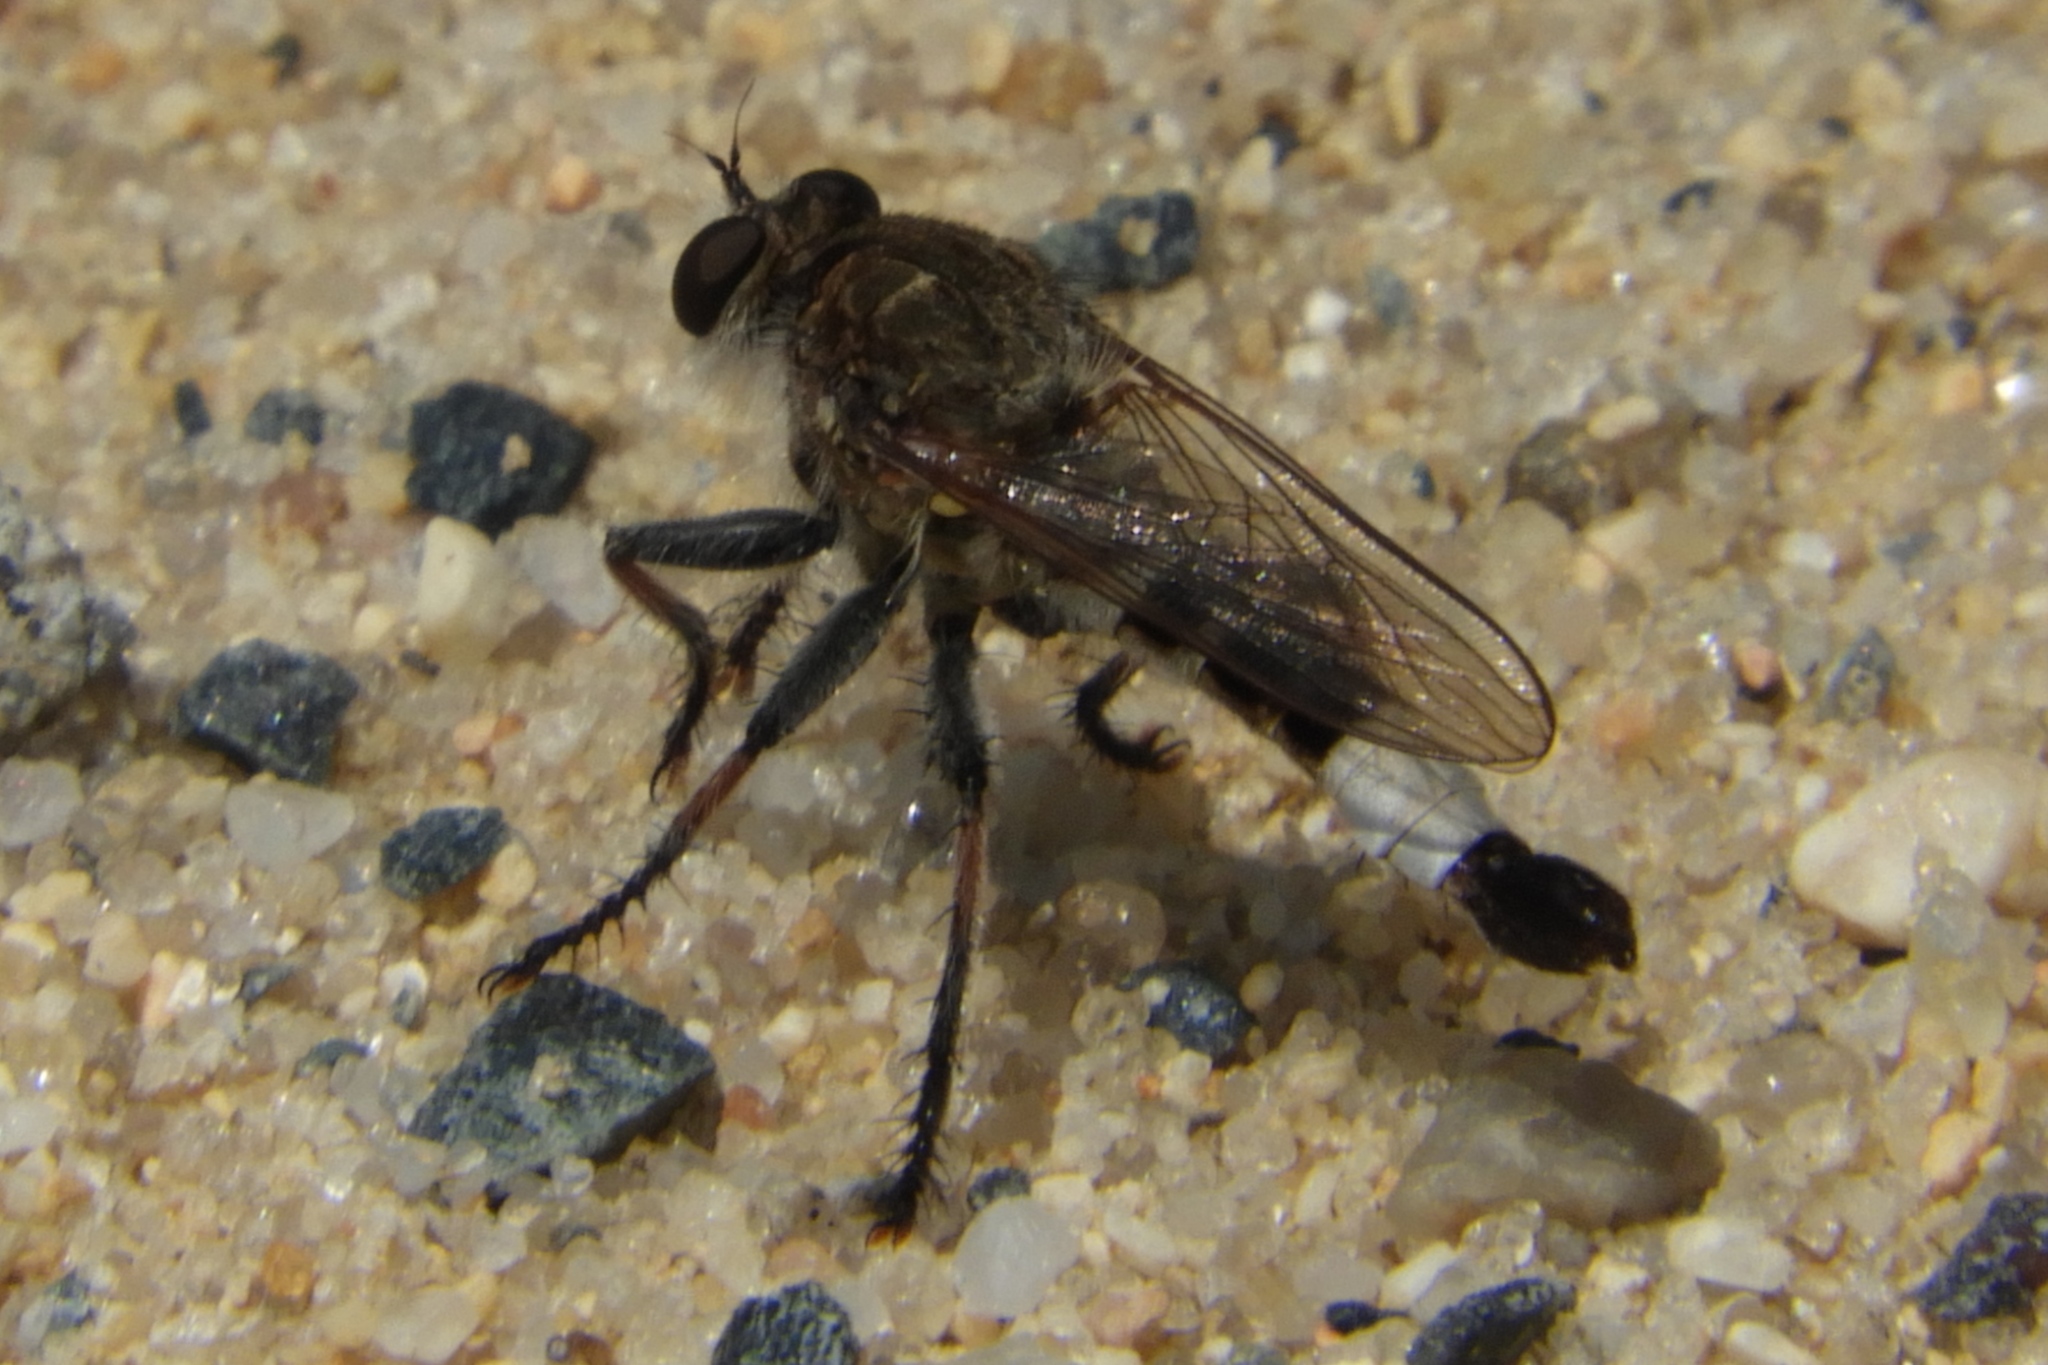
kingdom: Animalia
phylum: Arthropoda
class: Insecta
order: Diptera
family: Asilidae
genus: Efferia
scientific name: Efferia albibarbis
